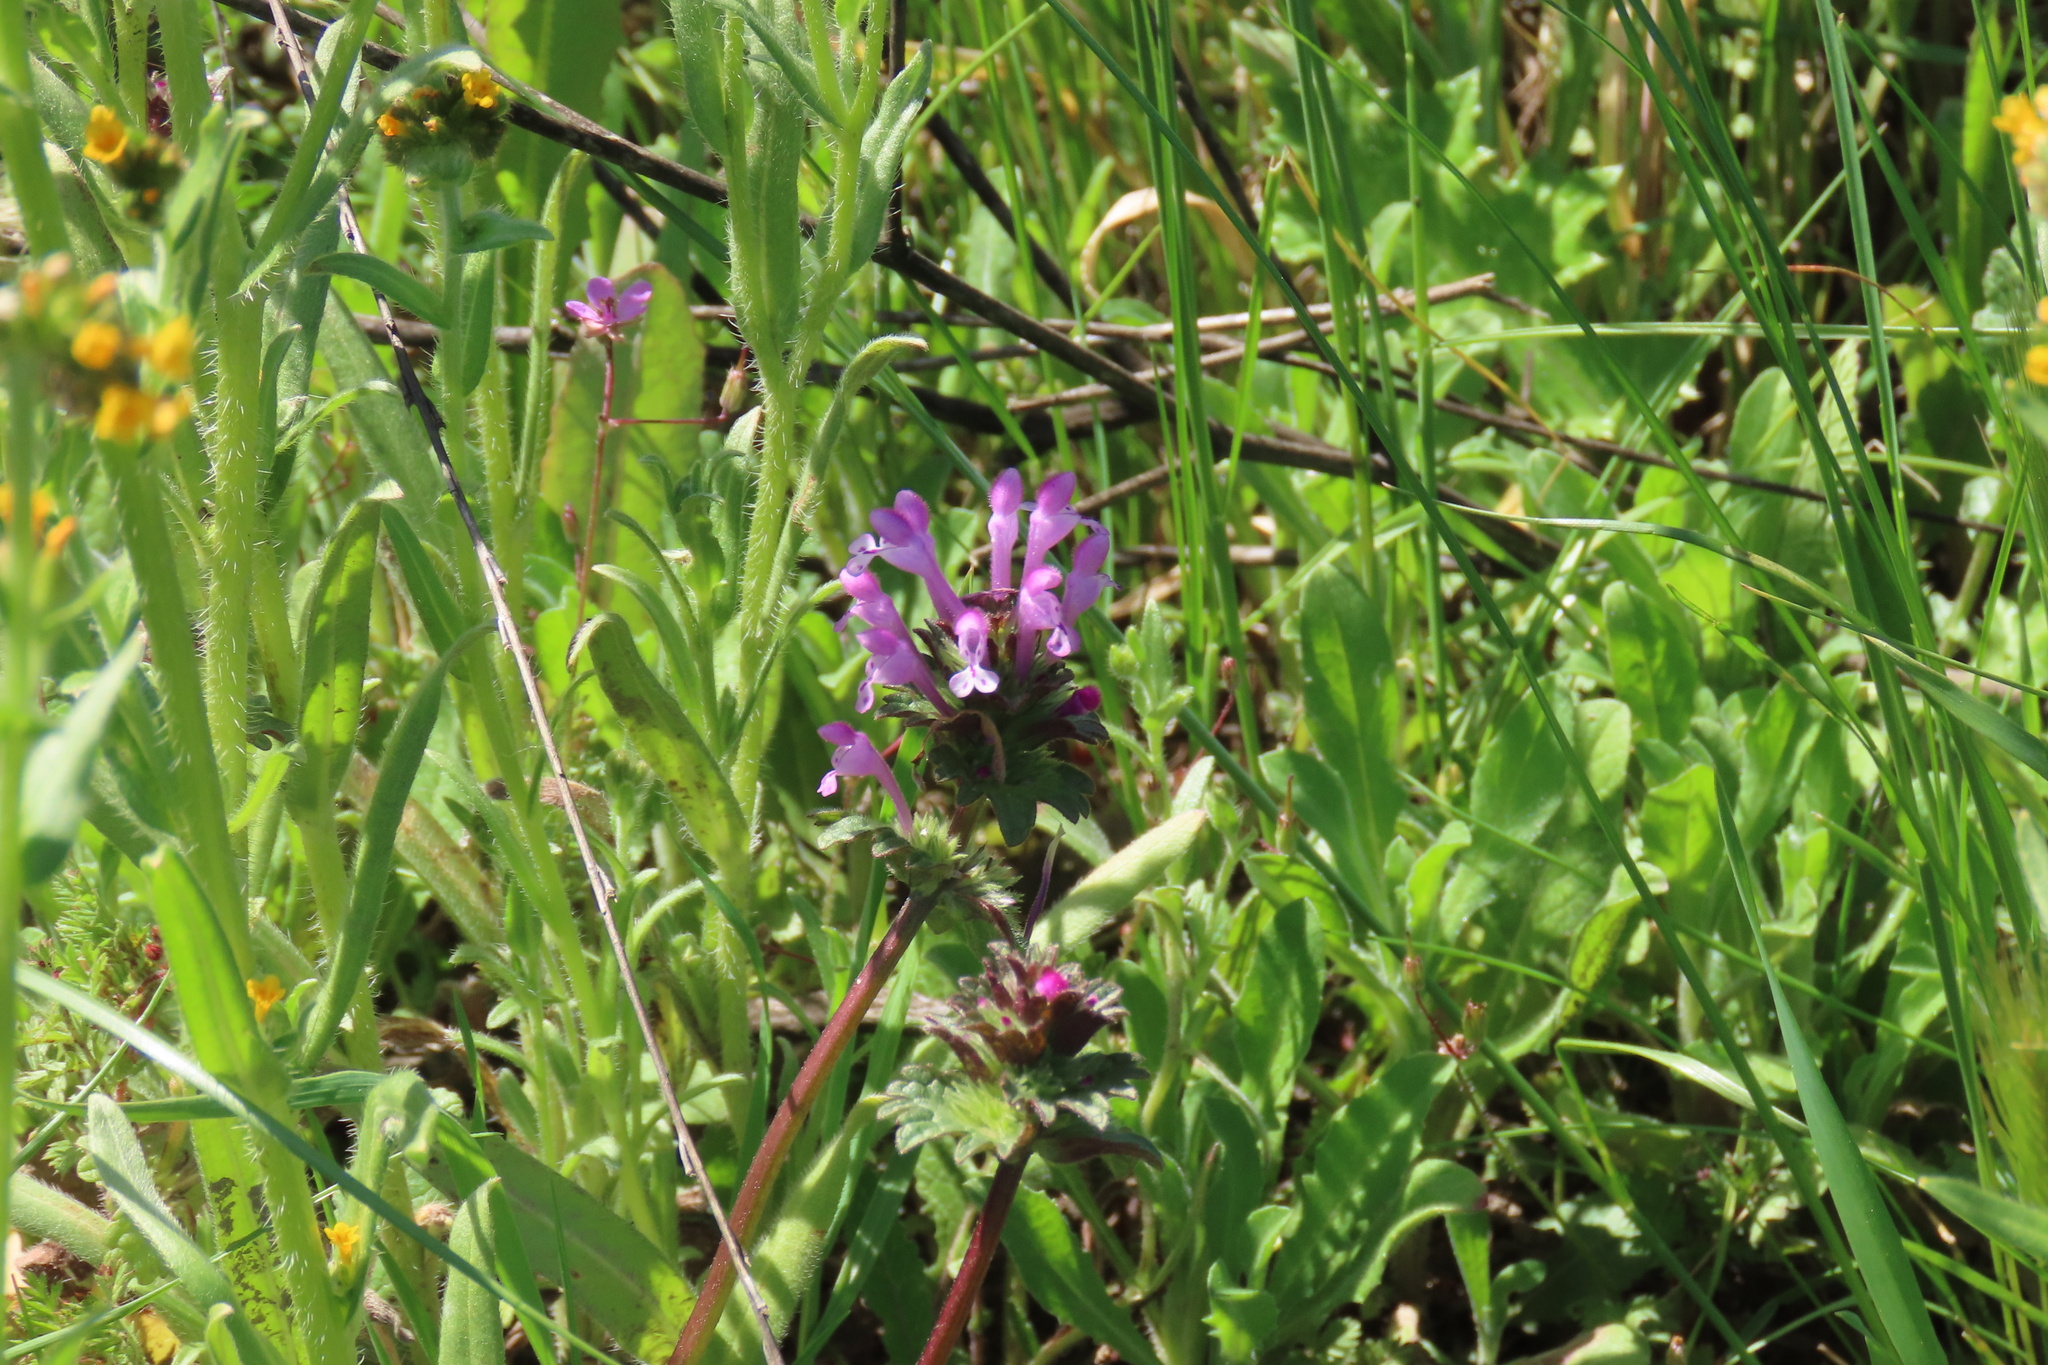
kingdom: Plantae
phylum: Tracheophyta
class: Magnoliopsida
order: Lamiales
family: Lamiaceae
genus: Lamium
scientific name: Lamium amplexicaule
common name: Henbit dead-nettle
